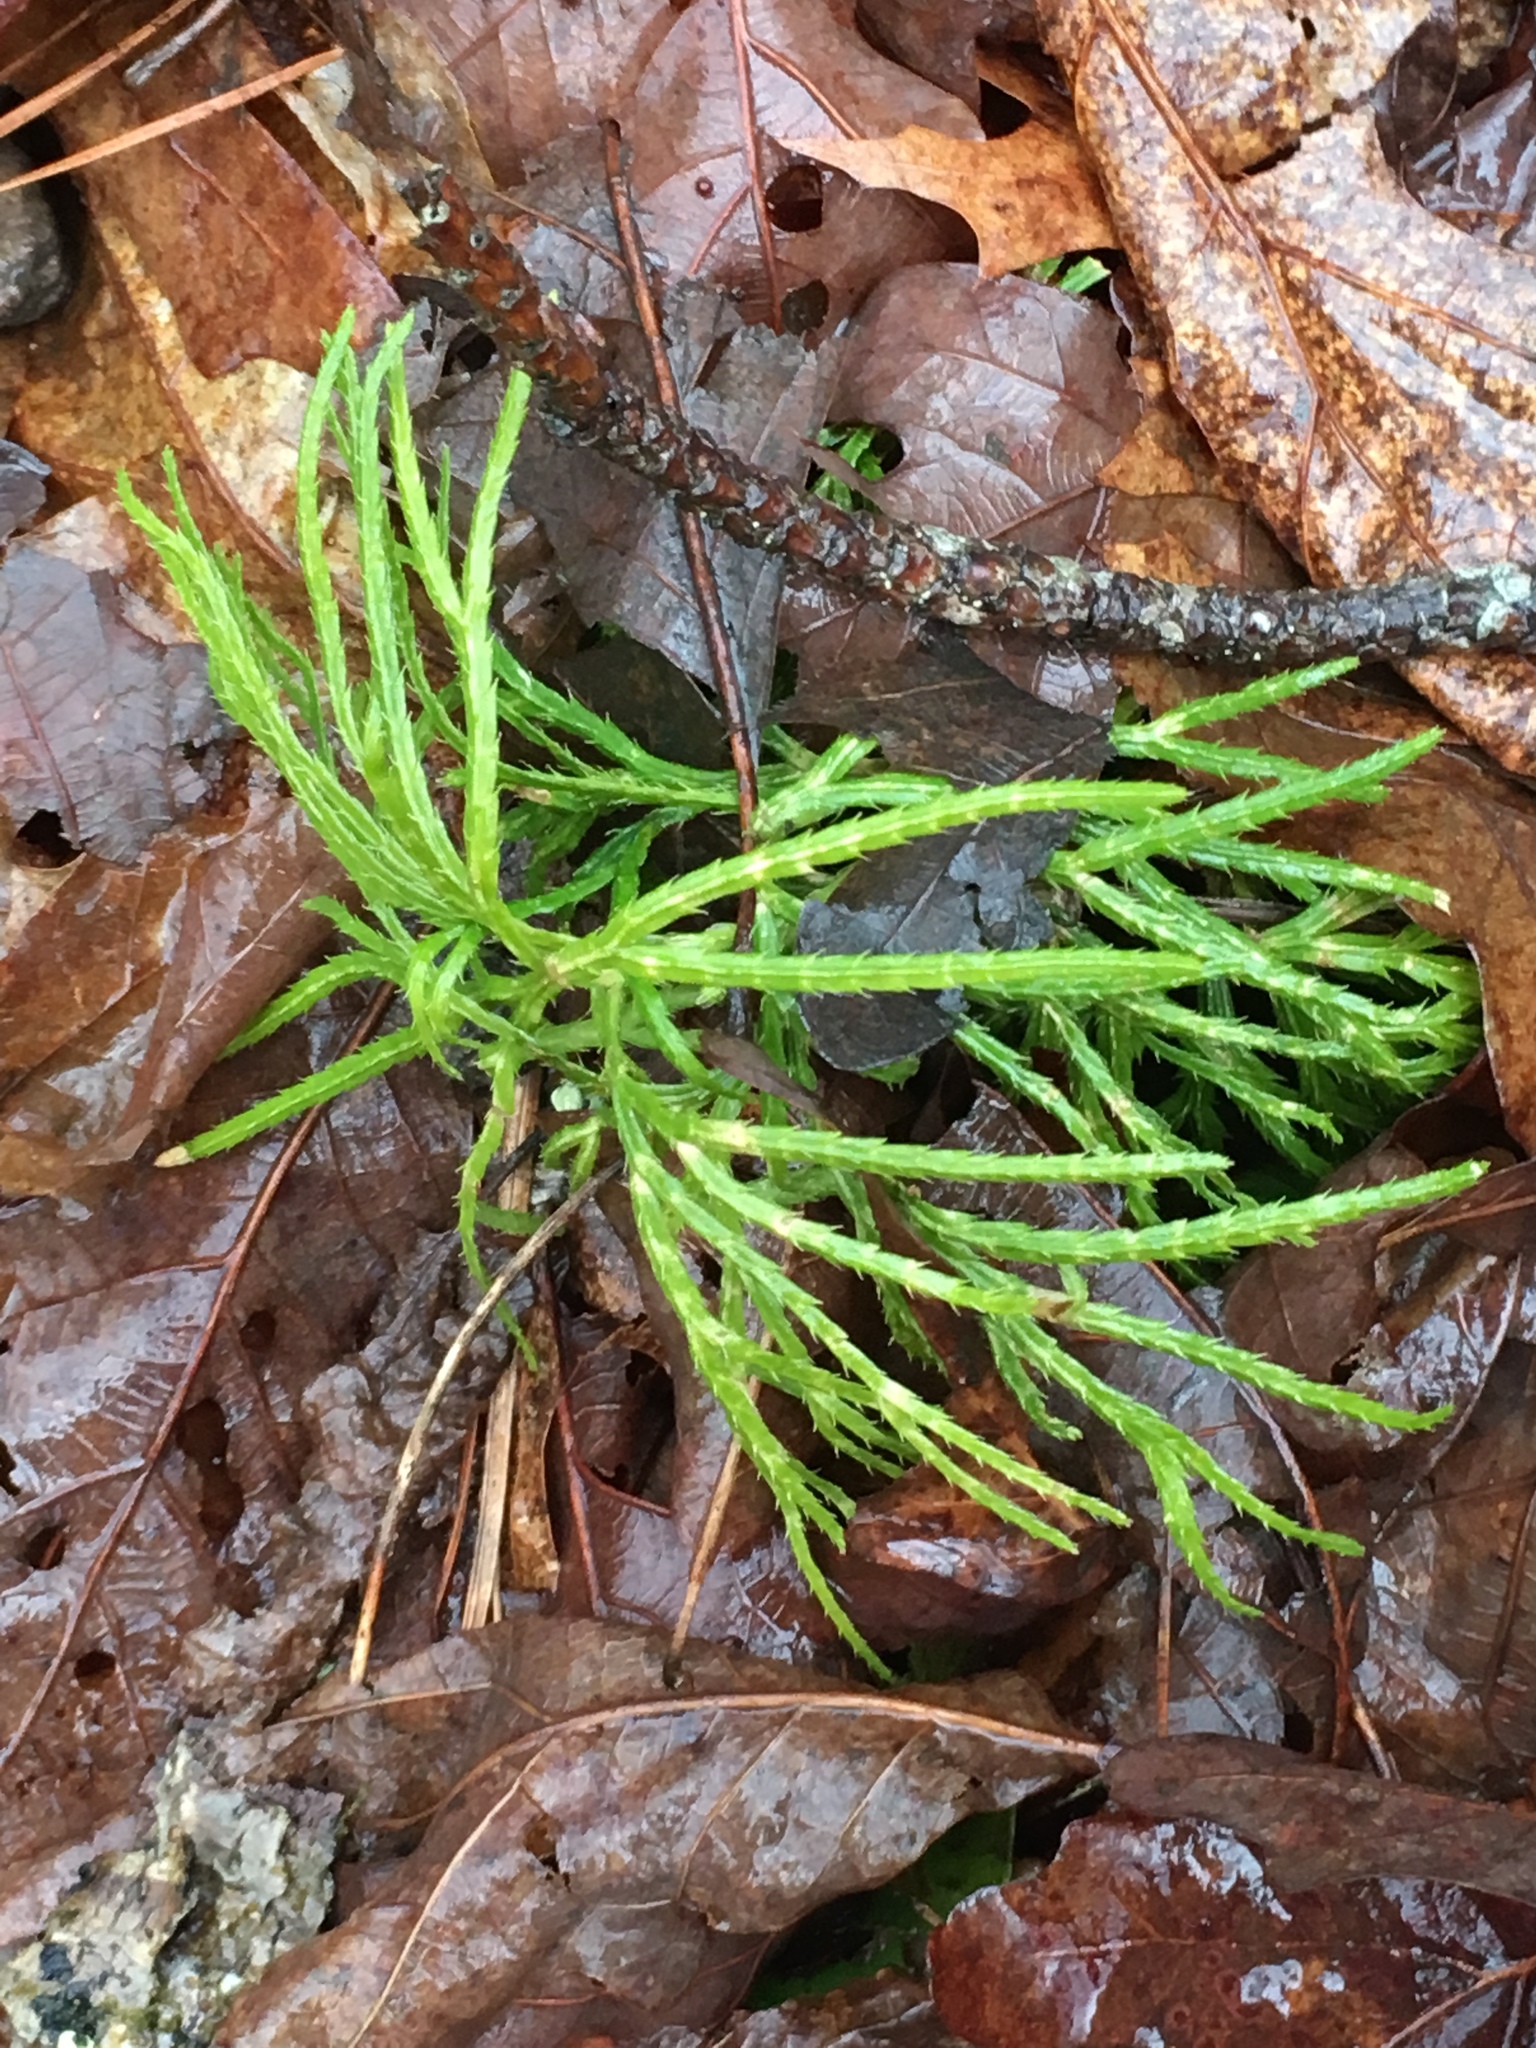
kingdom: Plantae
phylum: Tracheophyta
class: Lycopodiopsida
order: Lycopodiales
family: Lycopodiaceae
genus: Diphasiastrum
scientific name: Diphasiastrum digitatum
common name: Southern running-pine
